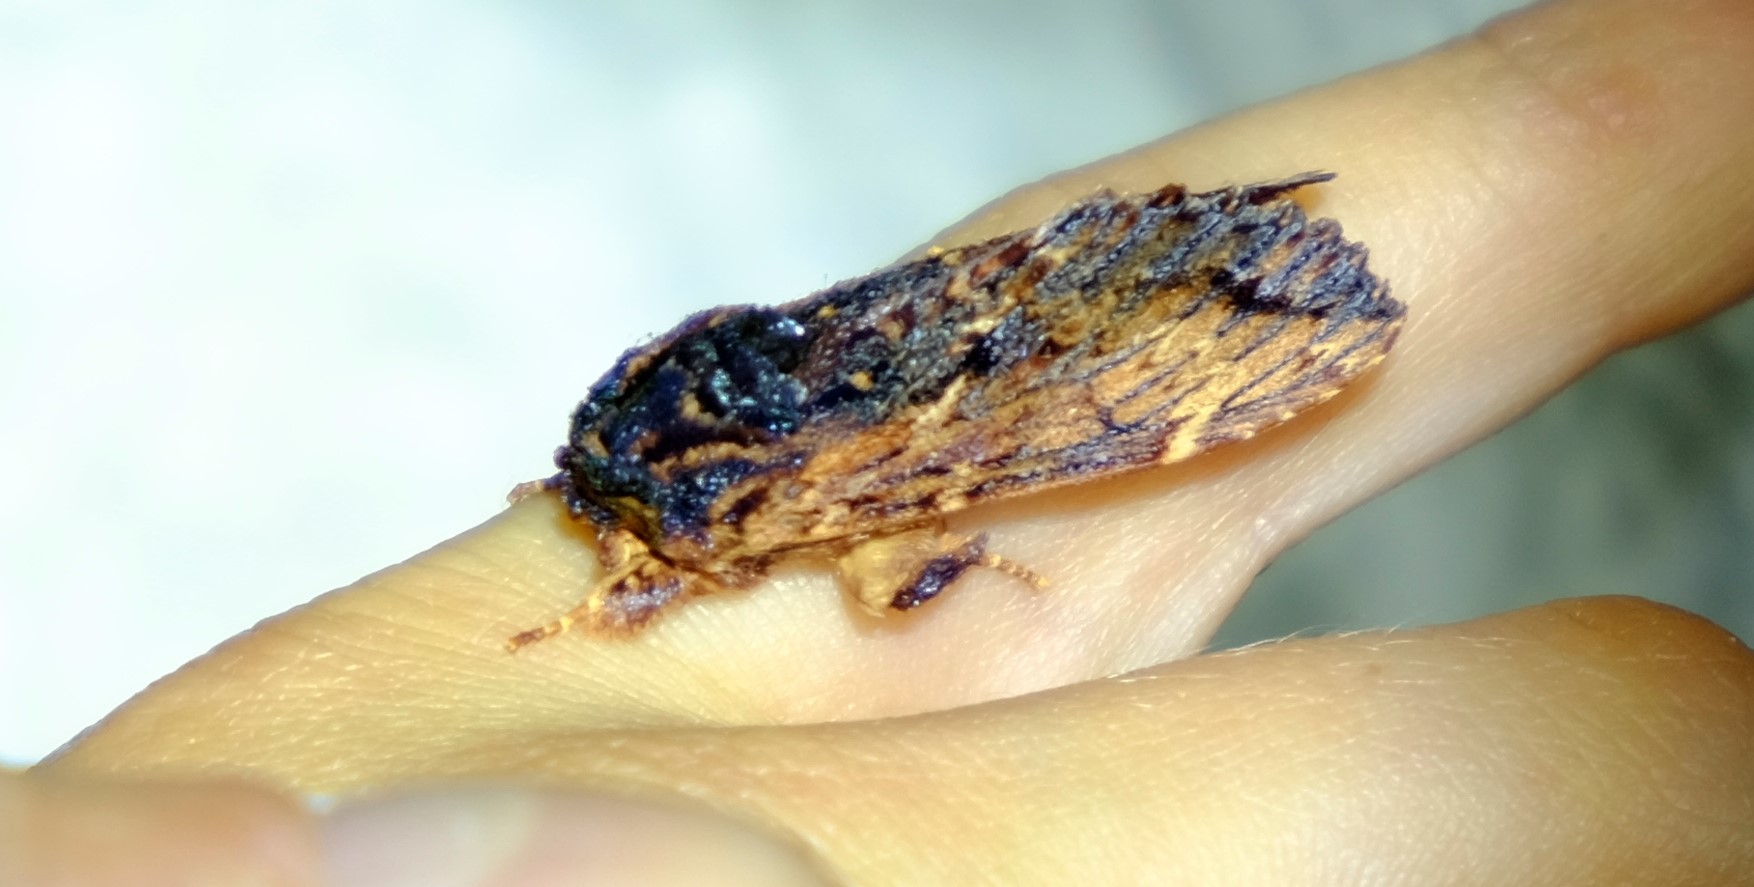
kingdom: Animalia
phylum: Arthropoda
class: Insecta
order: Lepidoptera
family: Notodontidae
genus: Sorama
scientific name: Sorama bicolor
